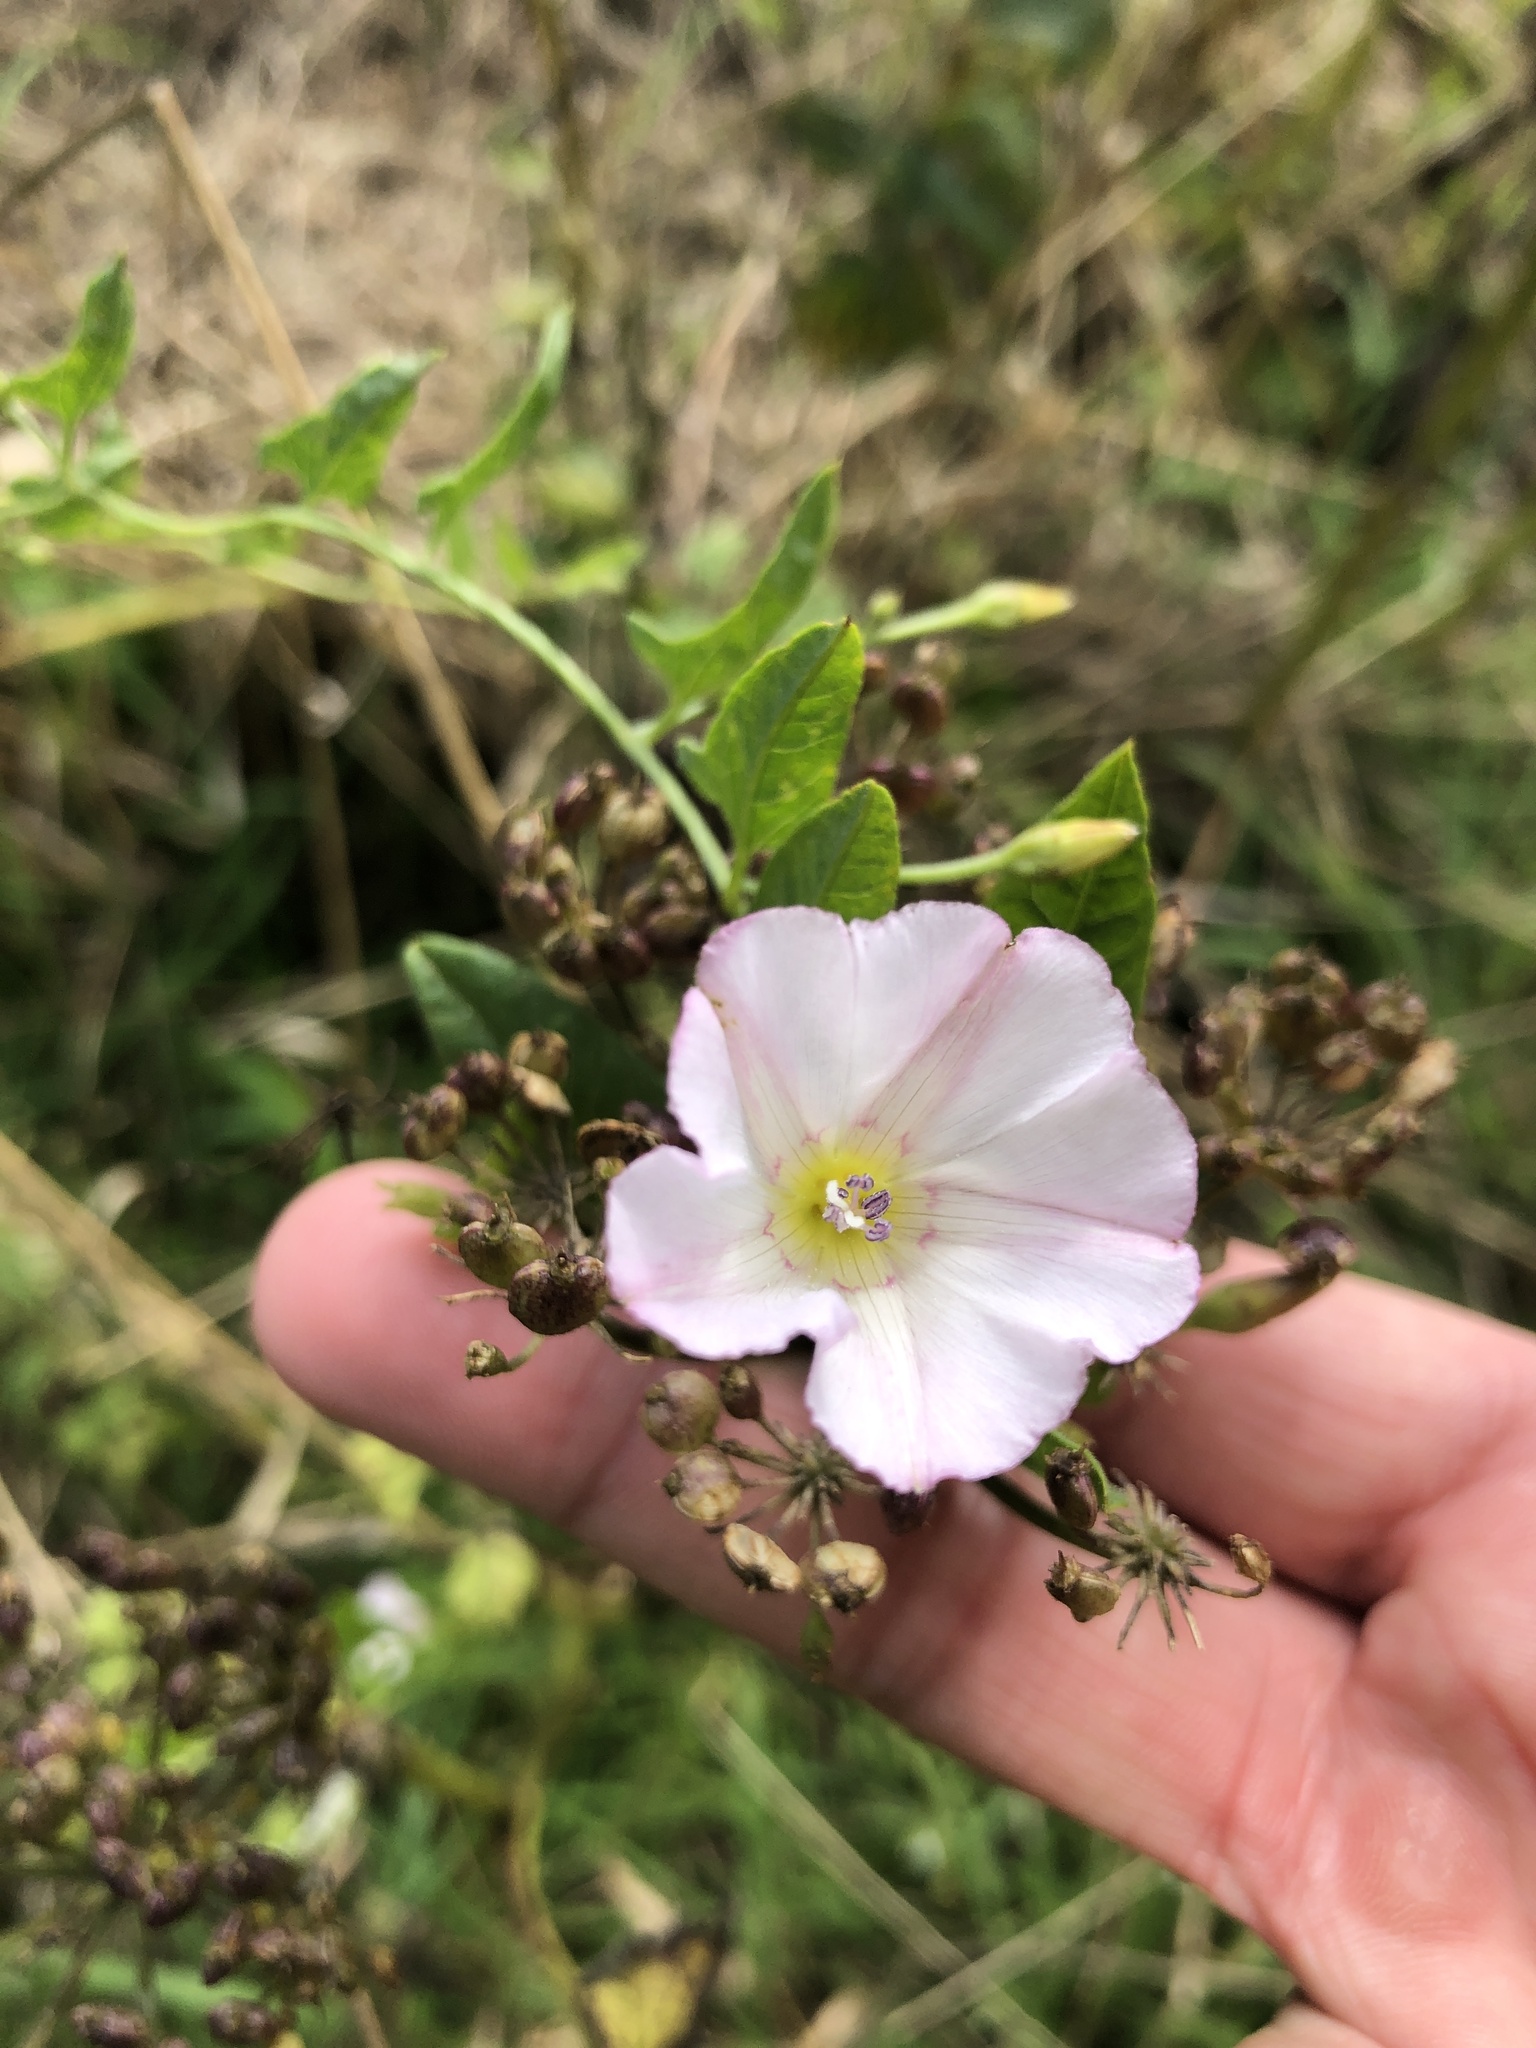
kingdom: Plantae
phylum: Tracheophyta
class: Magnoliopsida
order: Solanales
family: Convolvulaceae
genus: Convolvulus
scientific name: Convolvulus arvensis
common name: Field bindweed
